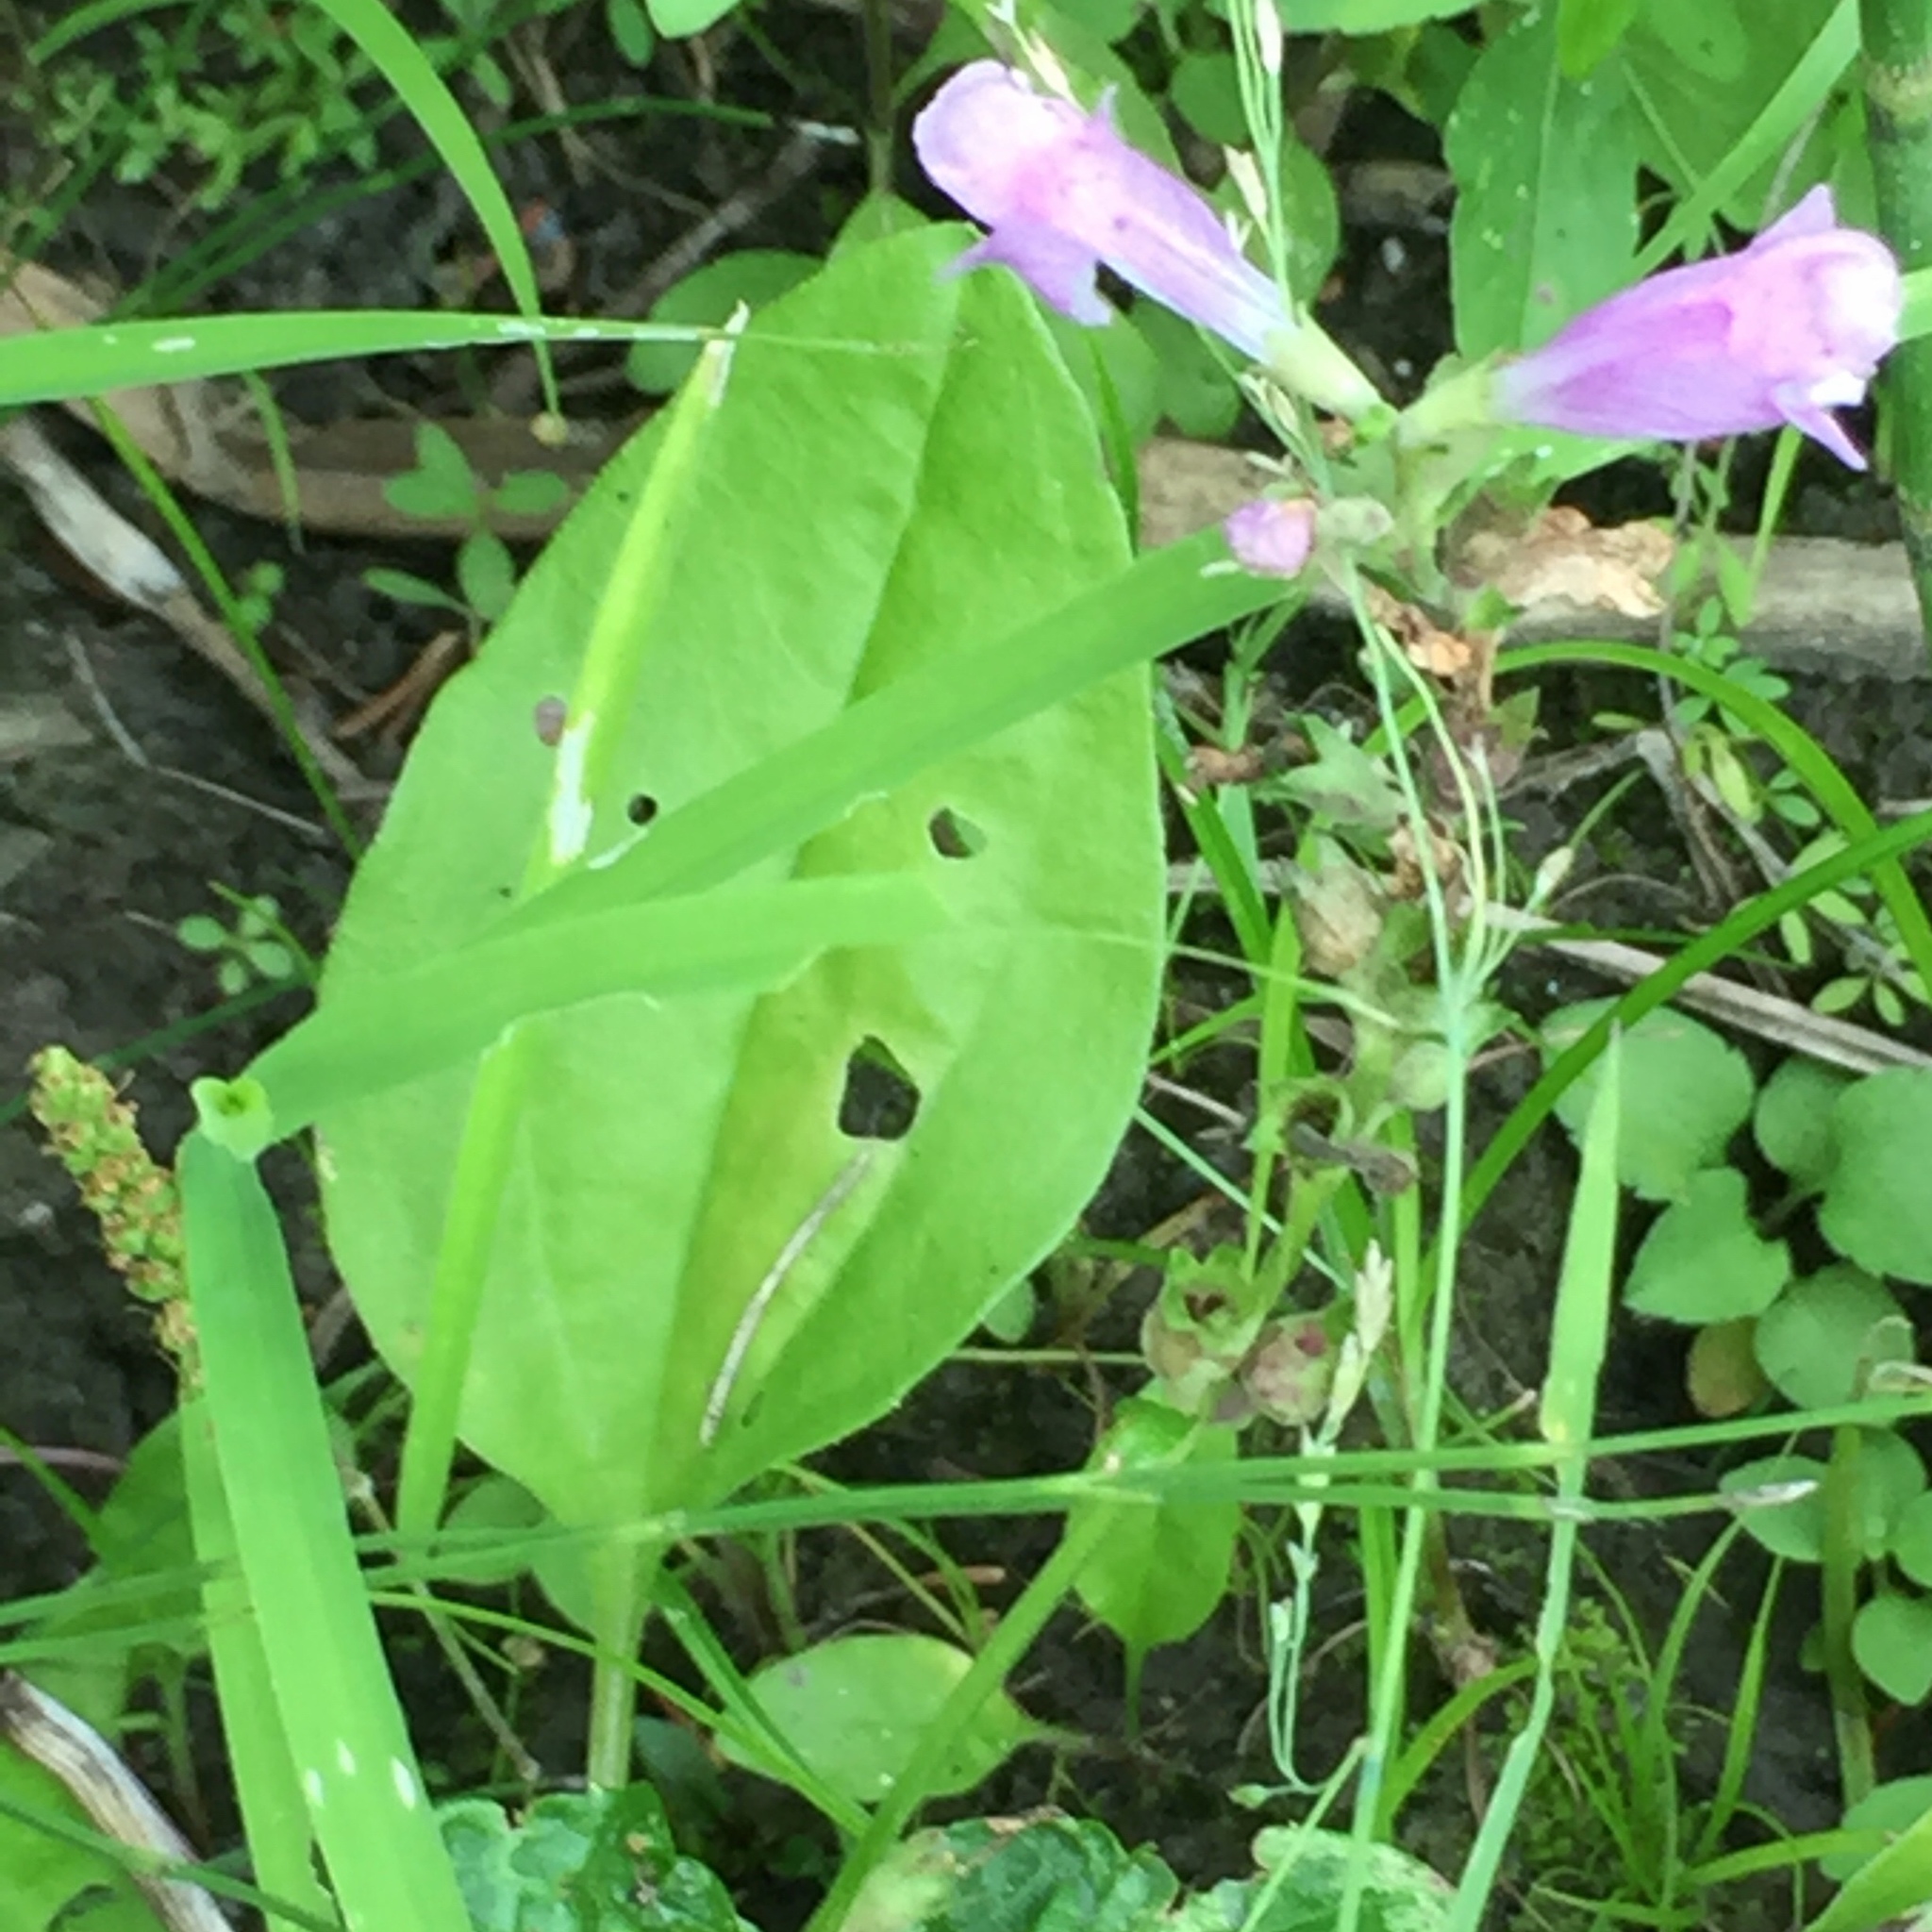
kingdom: Plantae
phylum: Tracheophyta
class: Magnoliopsida
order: Lamiales
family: Lamiaceae
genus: Physostegia
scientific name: Physostegia virginiana
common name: Obedient-plant
